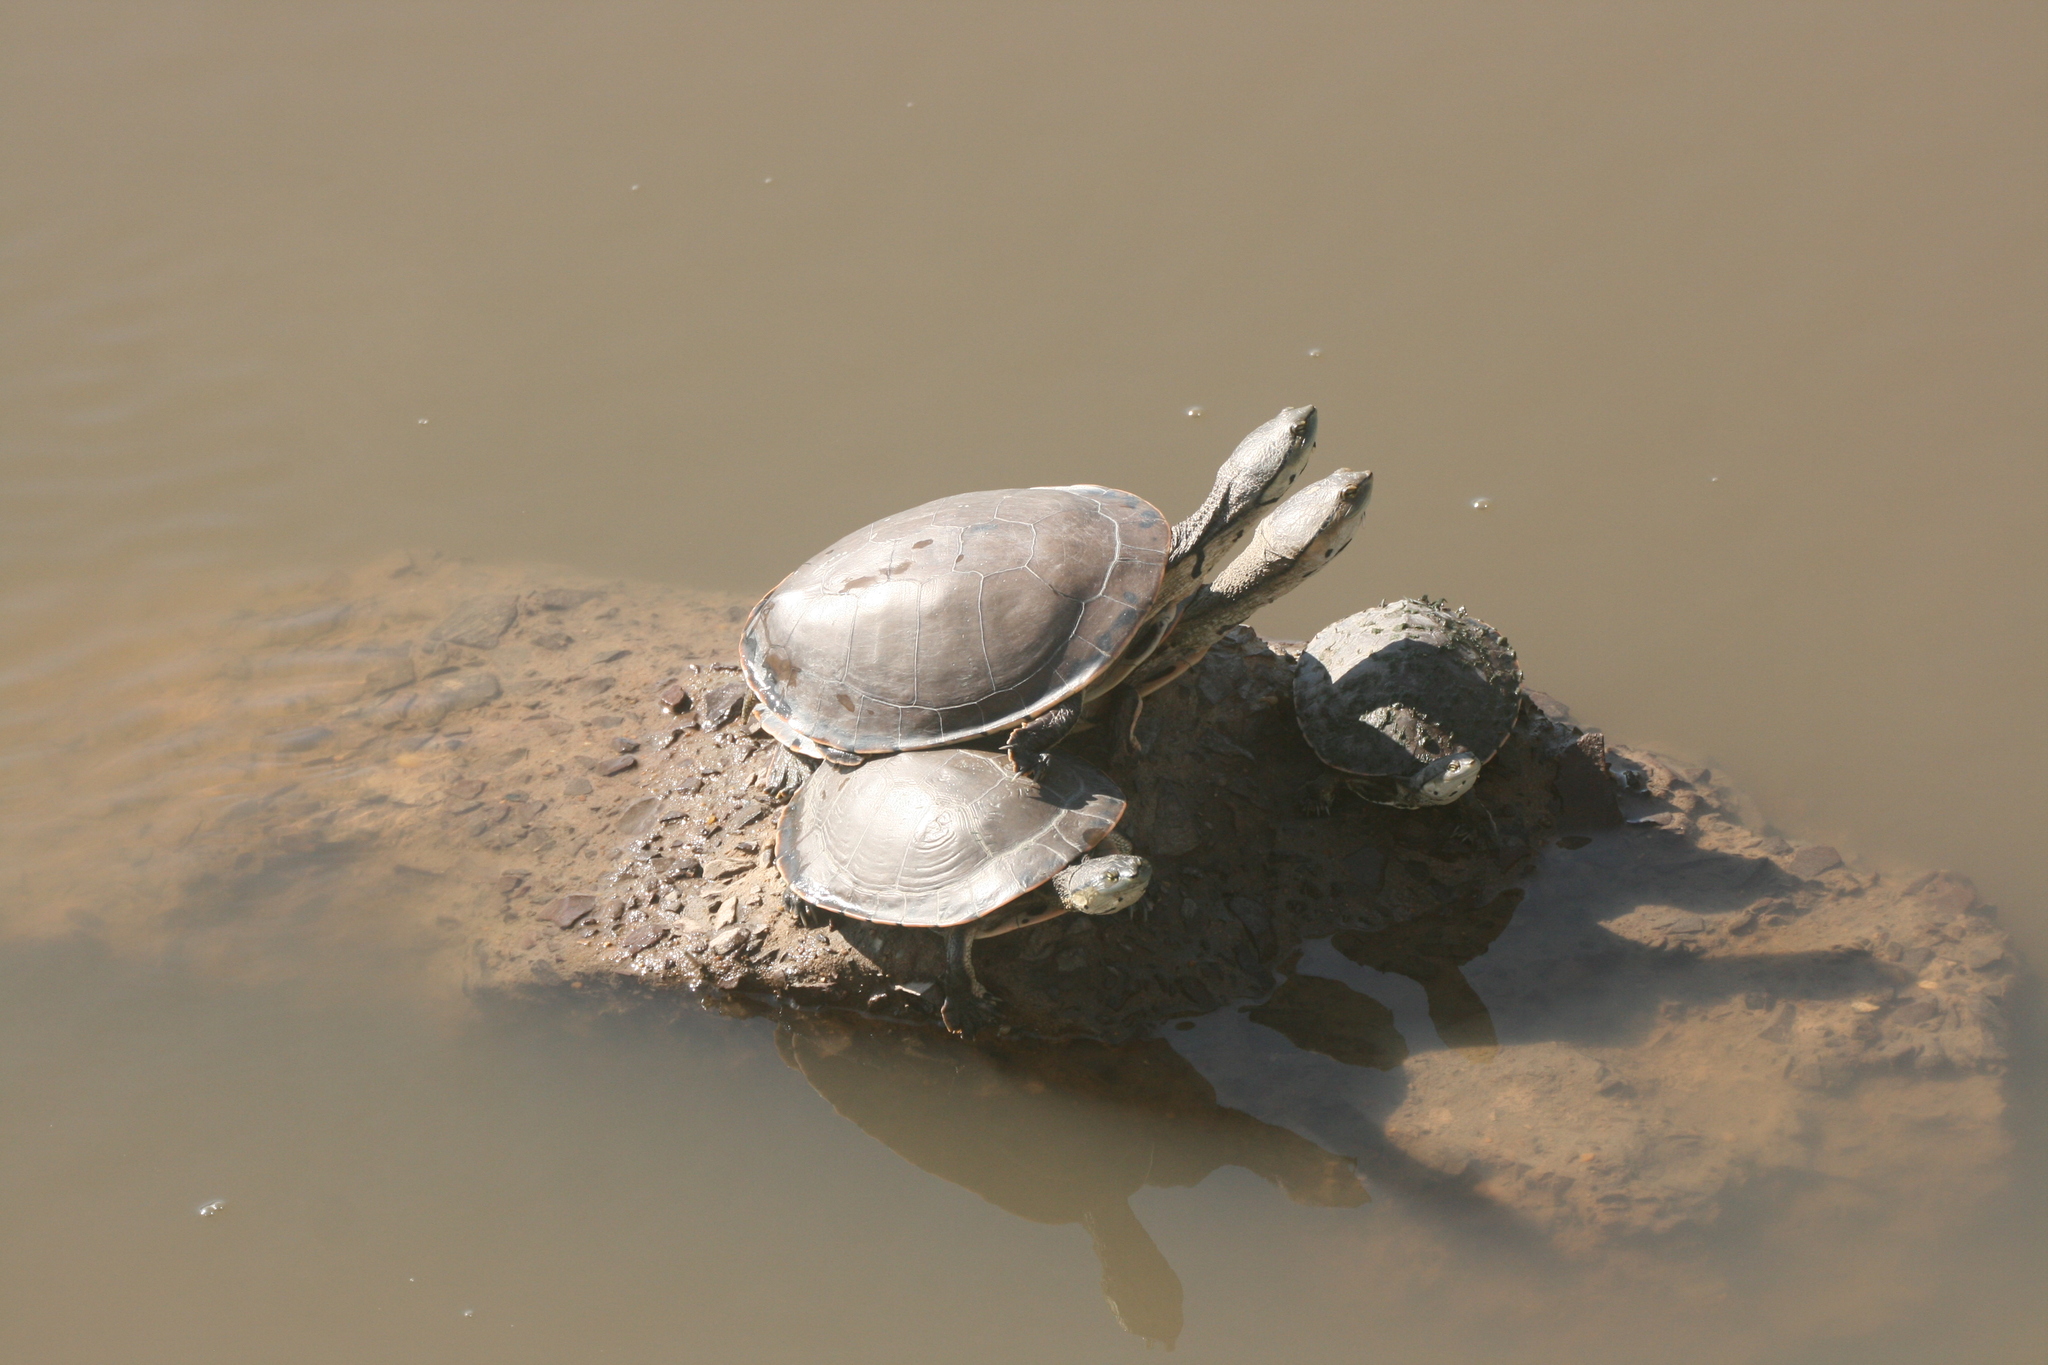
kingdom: Animalia
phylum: Chordata
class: Testudines
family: Chelidae
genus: Phrynops
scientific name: Phrynops hilarii
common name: Side-necked turtle of saint hillaire
